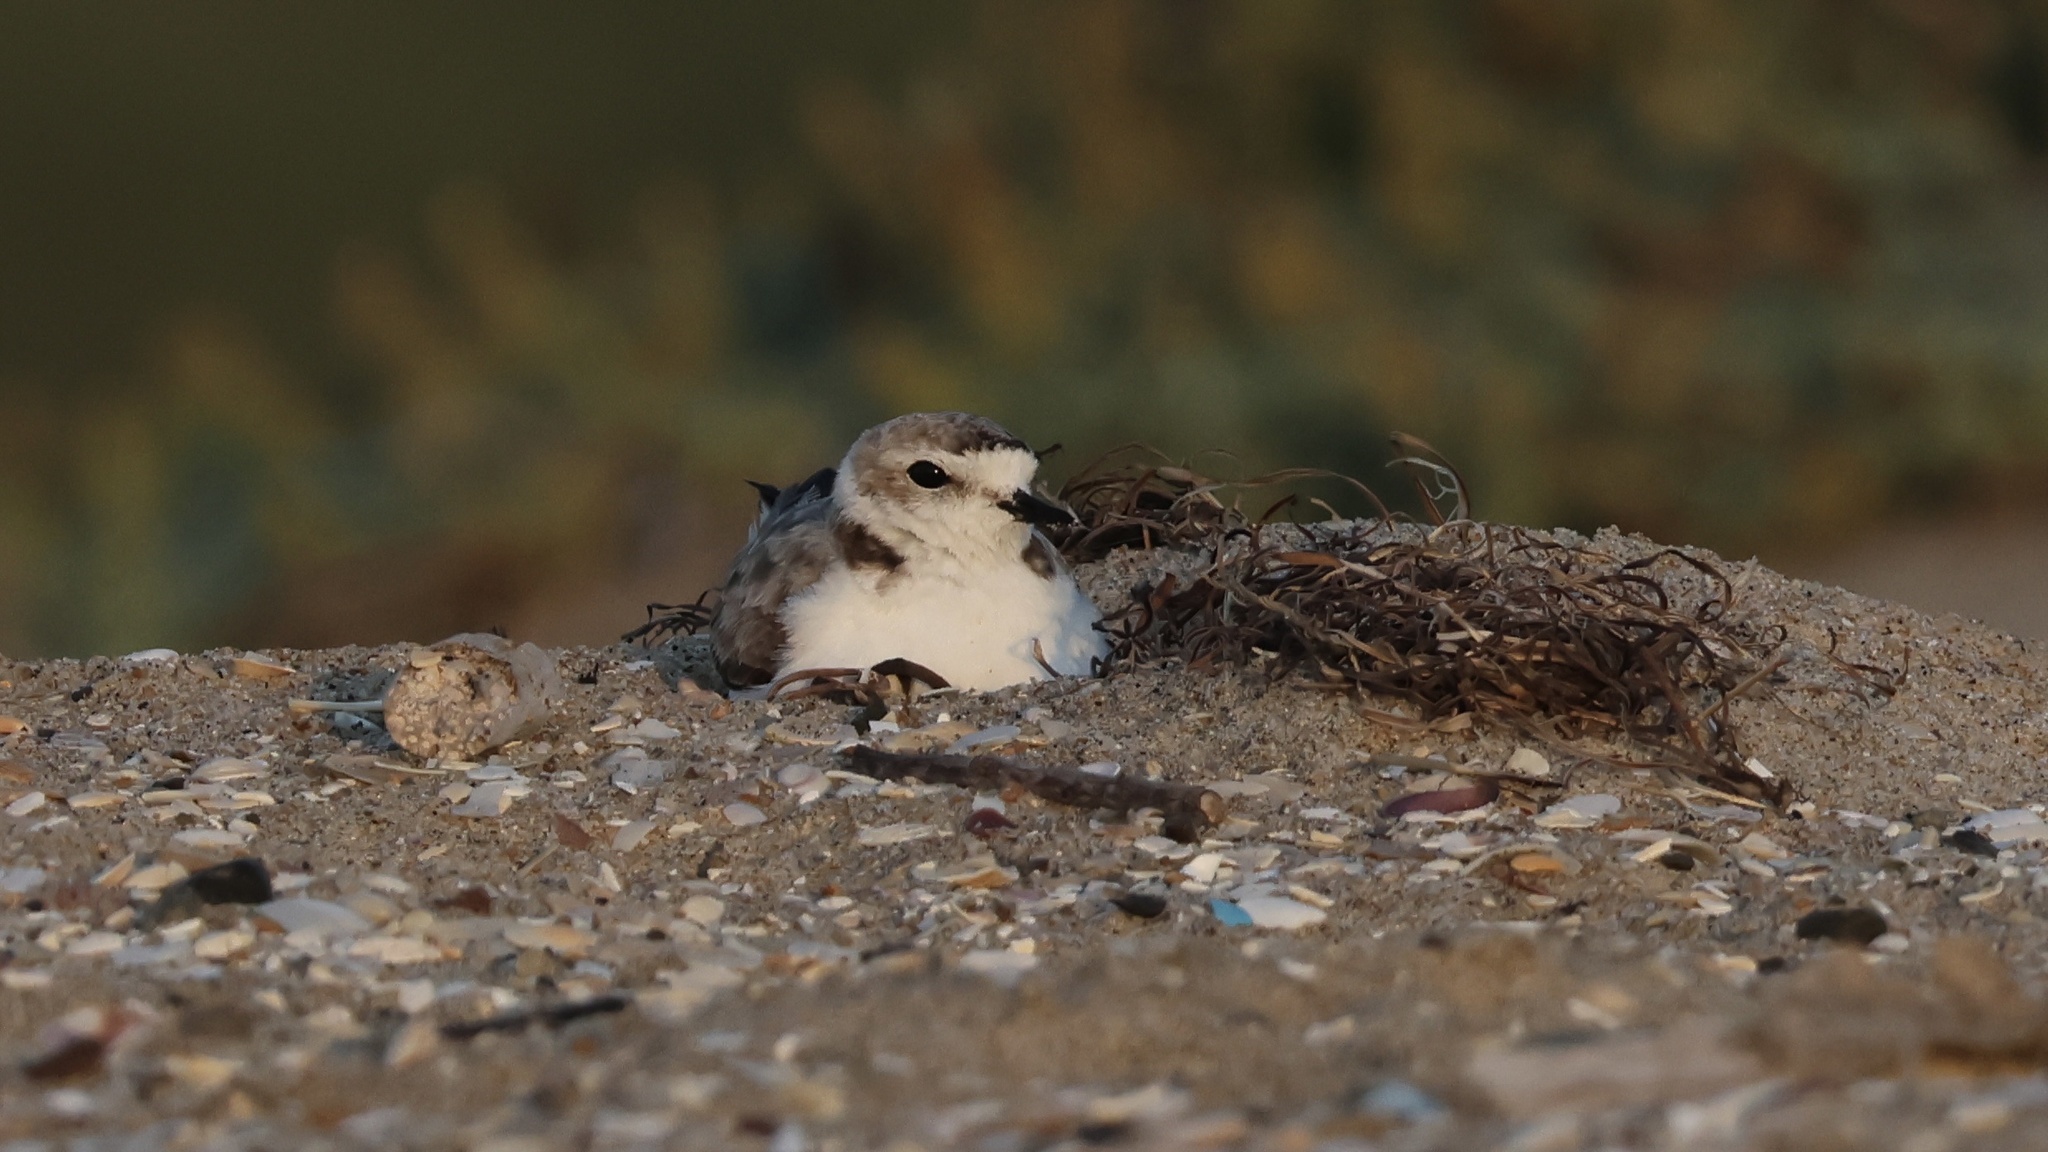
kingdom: Animalia
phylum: Chordata
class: Aves
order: Charadriiformes
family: Charadriidae
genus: Anarhynchus
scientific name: Anarhynchus
